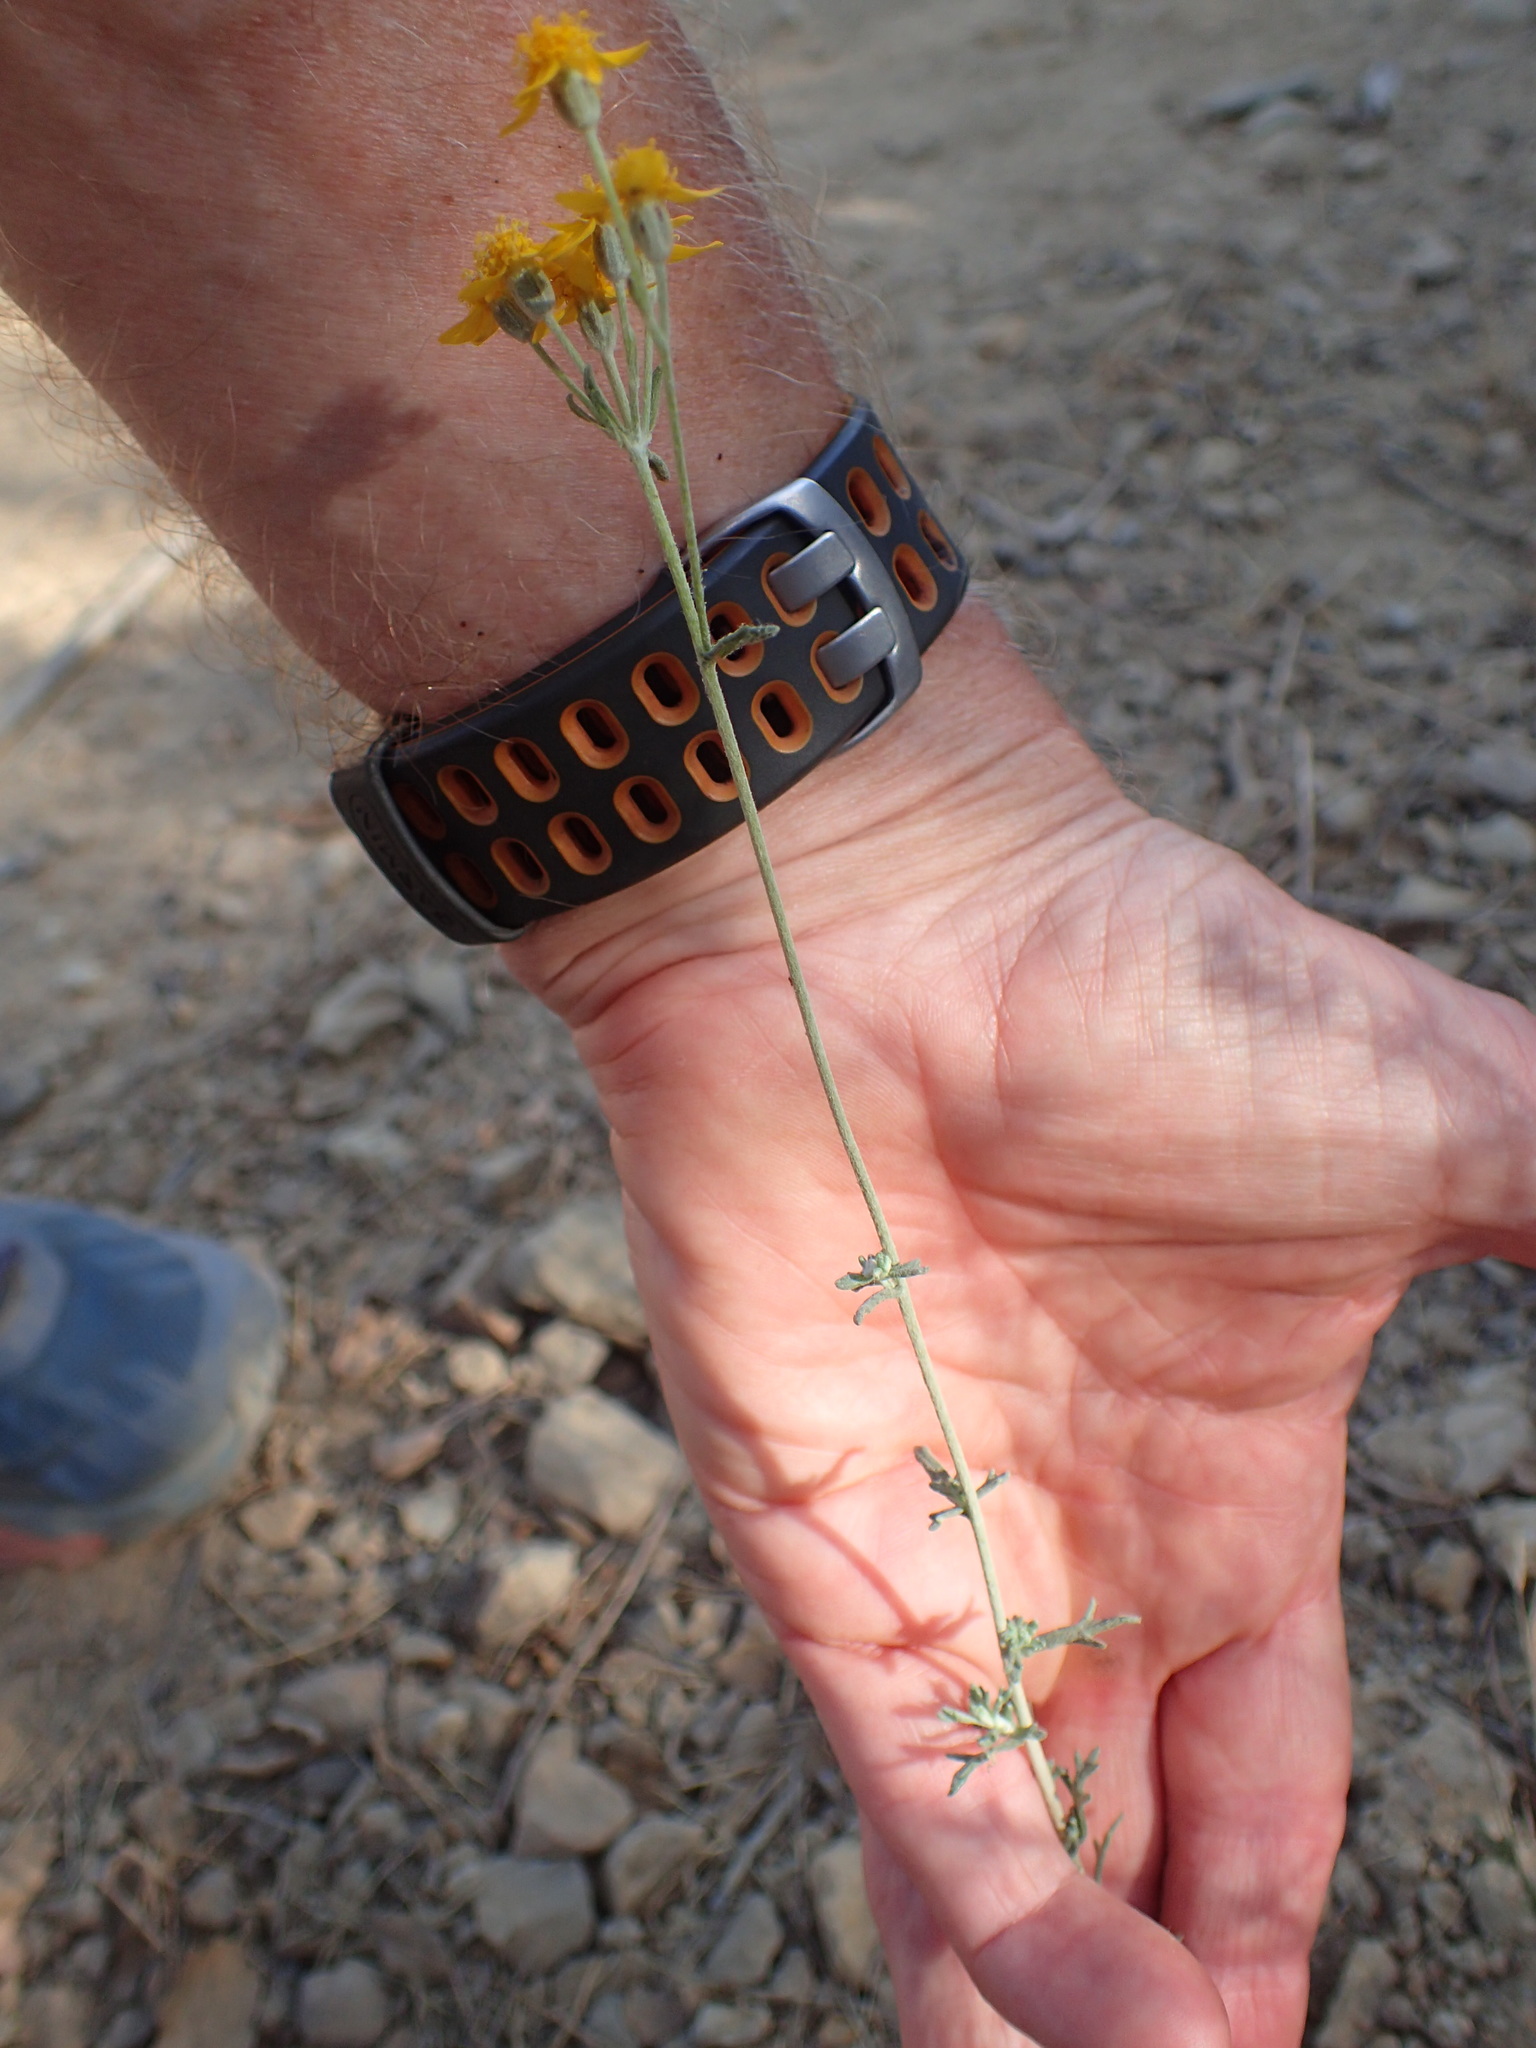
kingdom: Plantae
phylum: Tracheophyta
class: Magnoliopsida
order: Asterales
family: Asteraceae
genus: Eriophyllum
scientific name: Eriophyllum confertiflorum
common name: Golden-yarrow
